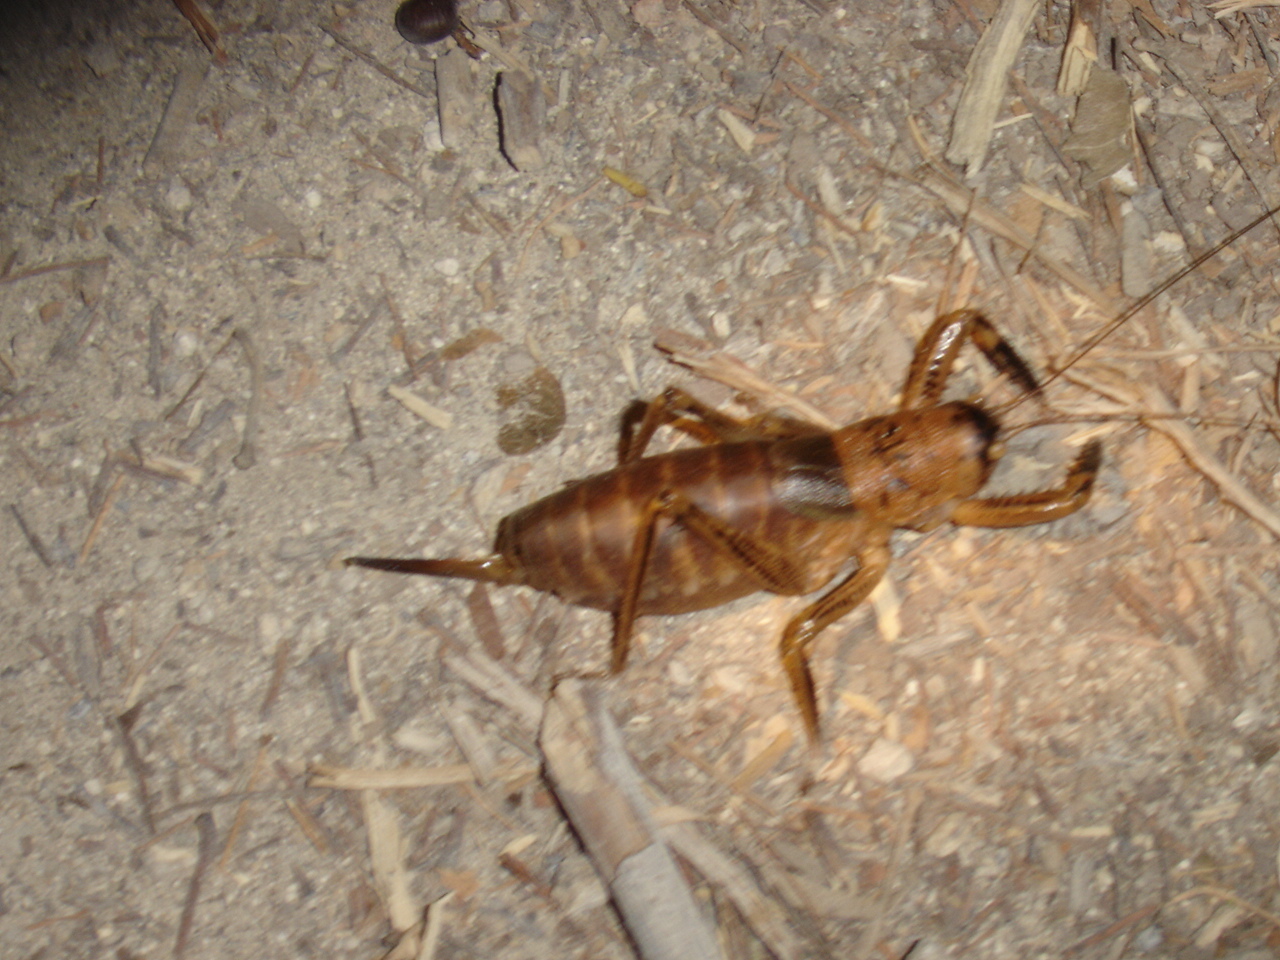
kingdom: Animalia
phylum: Arthropoda
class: Insecta
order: Orthoptera
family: Tettigoniidae
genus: Nesoecia
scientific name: Nesoecia nigrispina
